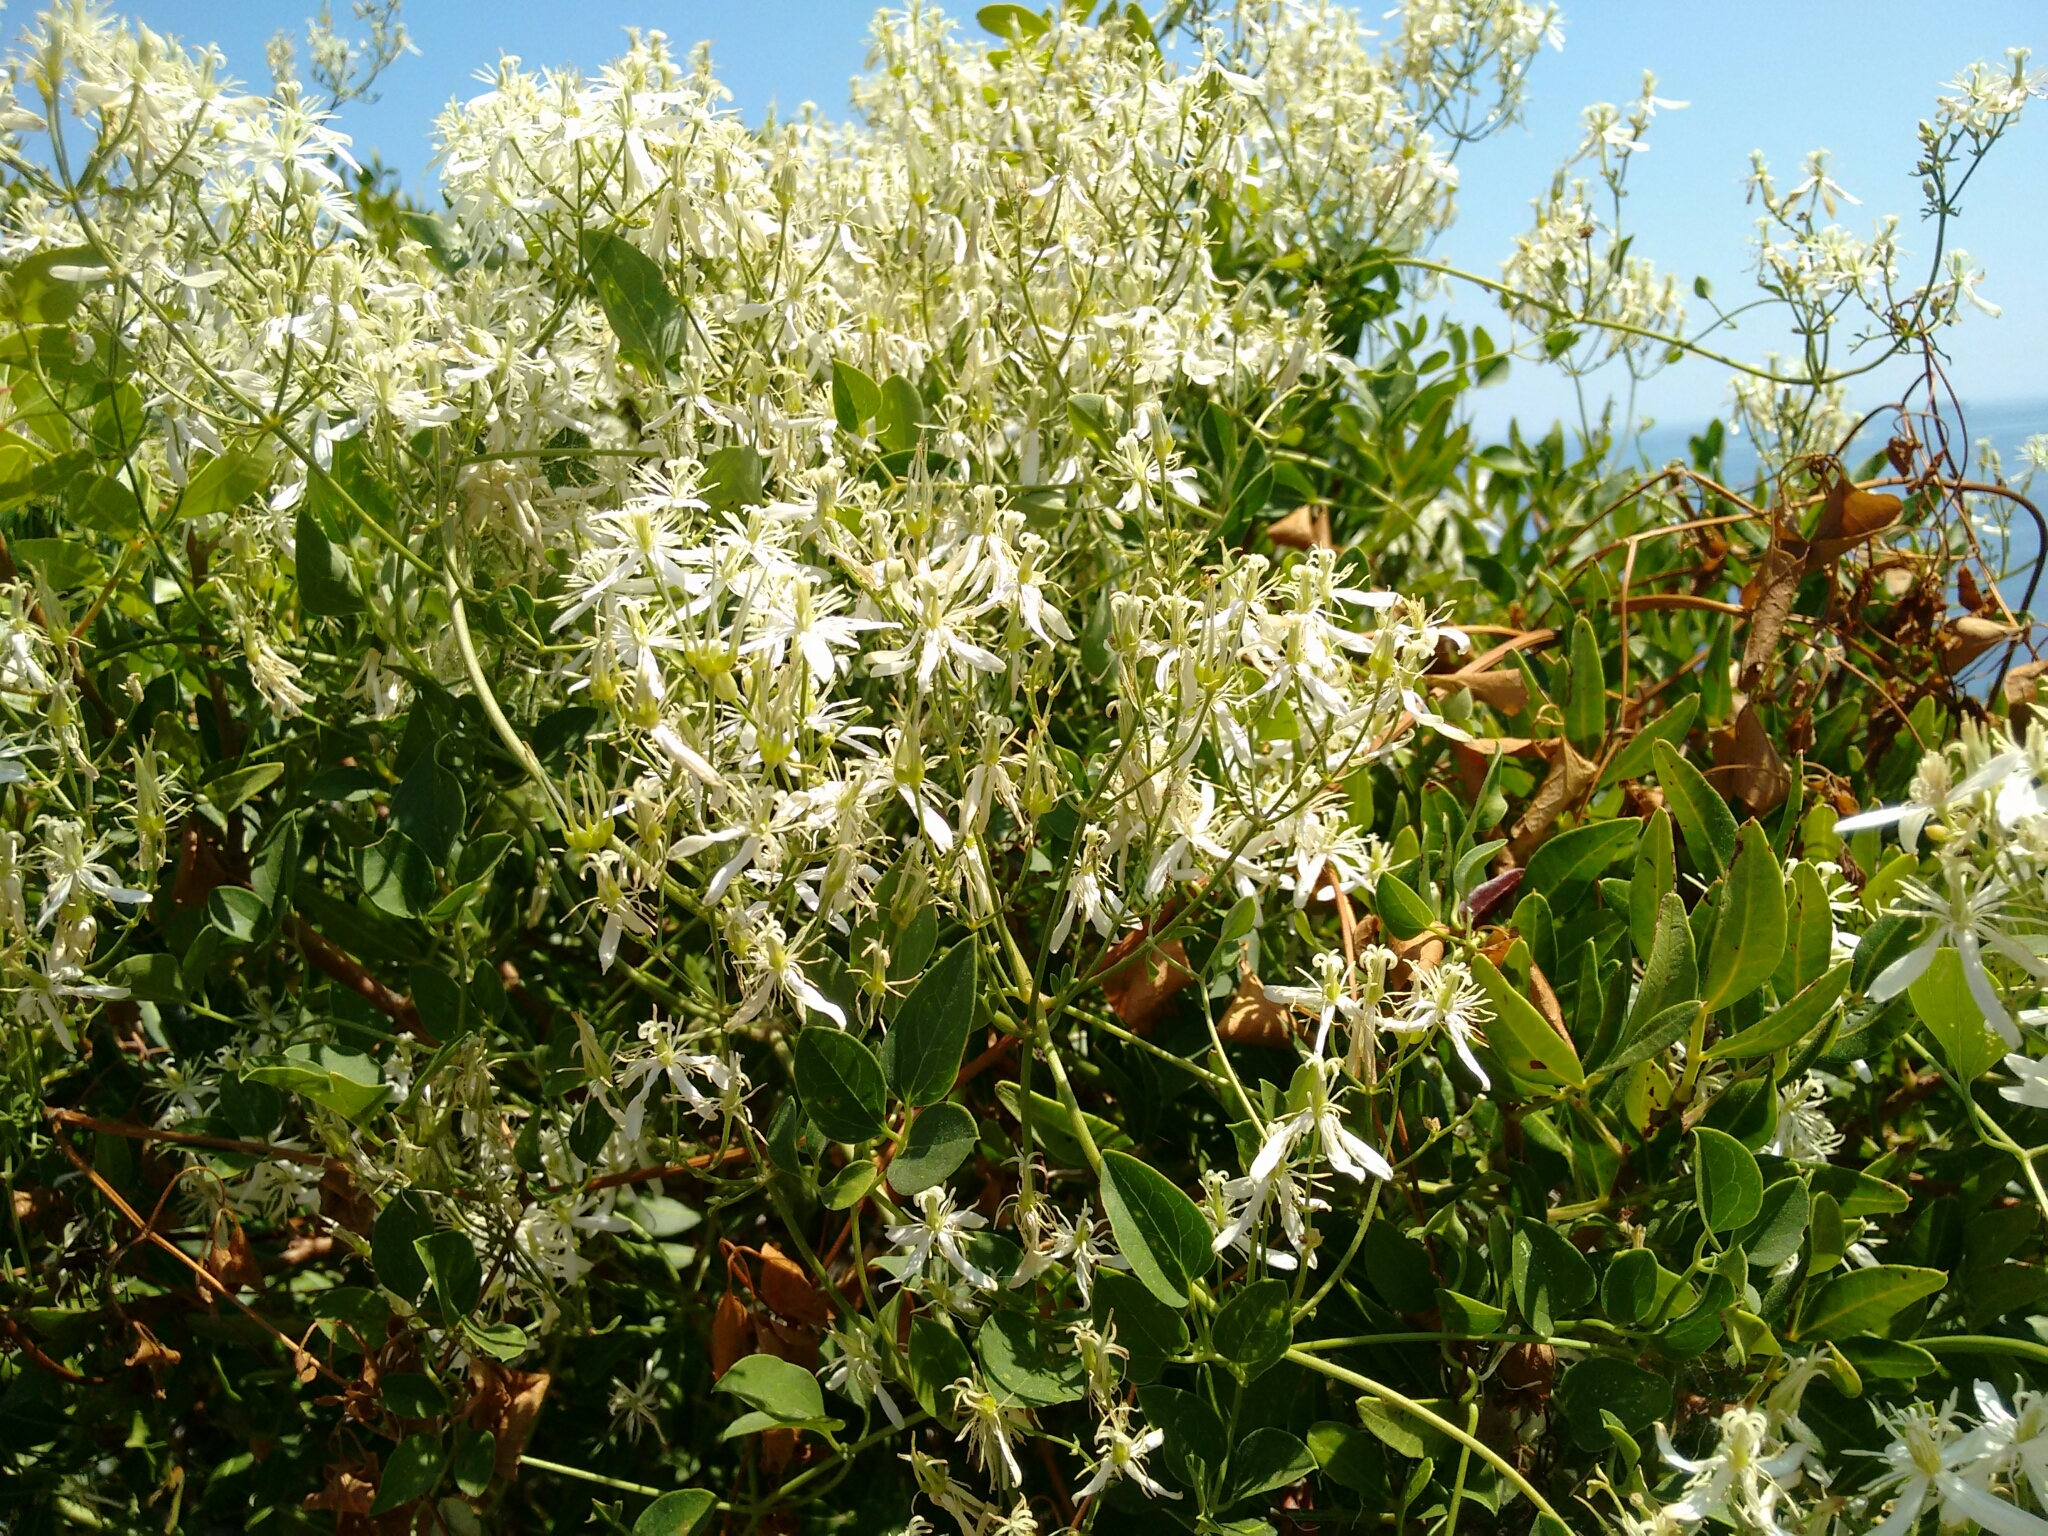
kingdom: Plantae
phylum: Tracheophyta
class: Magnoliopsida
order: Ranunculales
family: Ranunculaceae
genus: Clematis
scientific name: Clematis flammula
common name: Virgin's-bower
